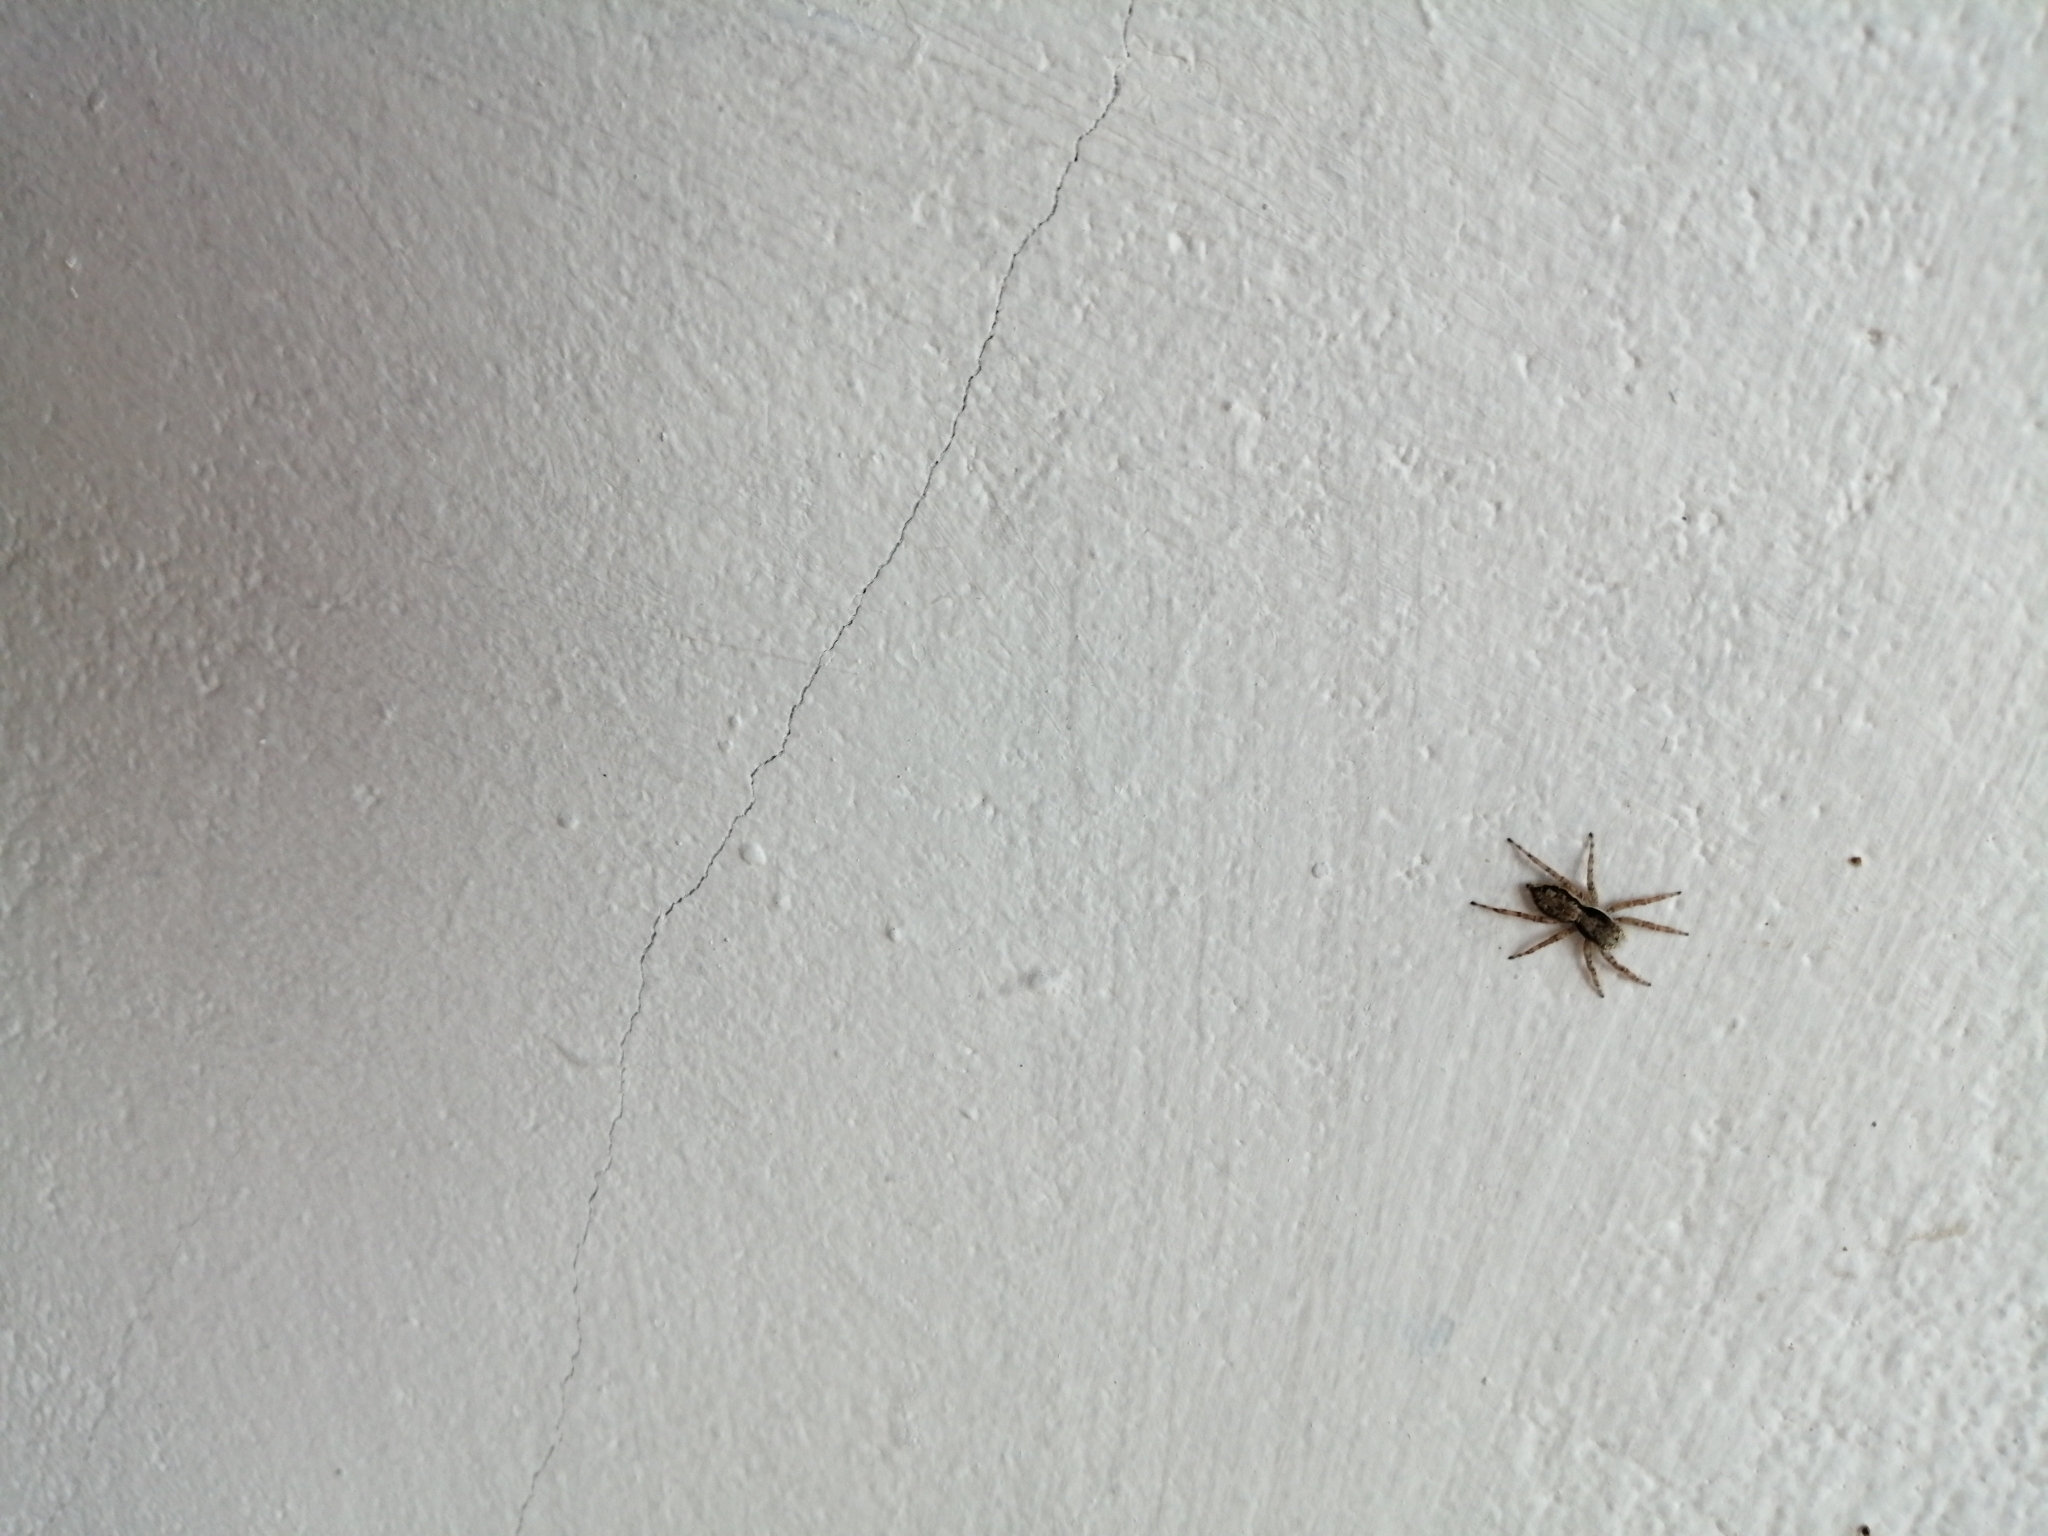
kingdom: Animalia
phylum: Arthropoda
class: Arachnida
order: Araneae
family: Salticidae
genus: Menemerus
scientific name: Menemerus bivittatus
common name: Gray wall jumper
